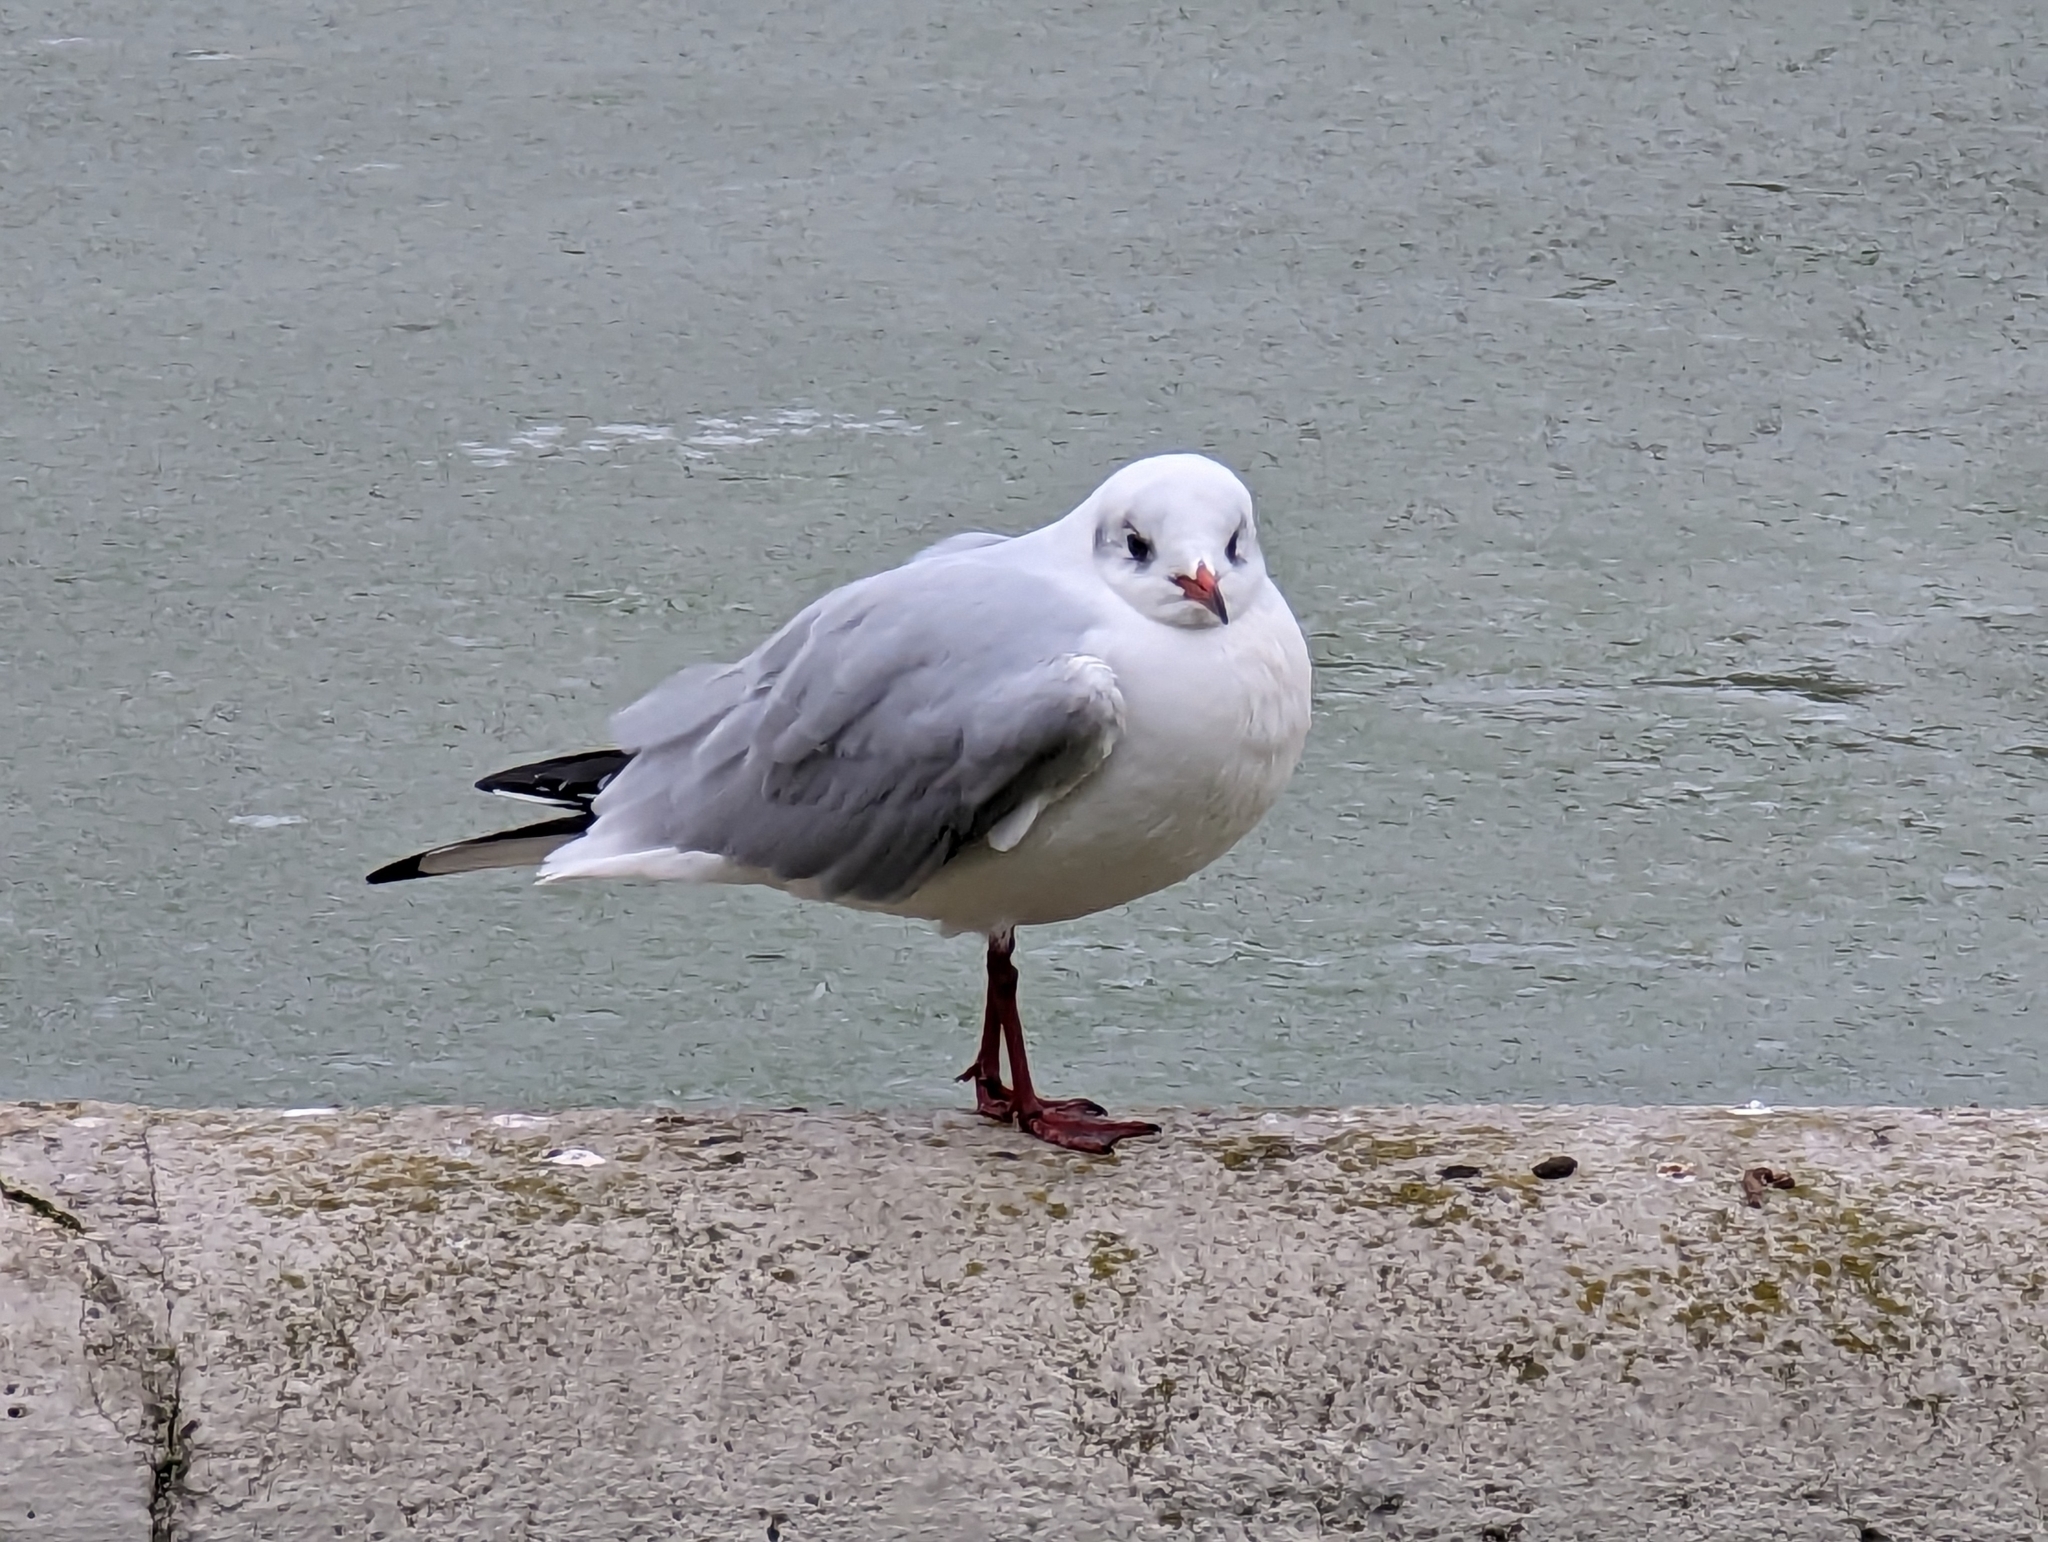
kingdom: Animalia
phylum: Chordata
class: Aves
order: Charadriiformes
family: Laridae
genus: Chroicocephalus
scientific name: Chroicocephalus ridibundus
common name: Black-headed gull
